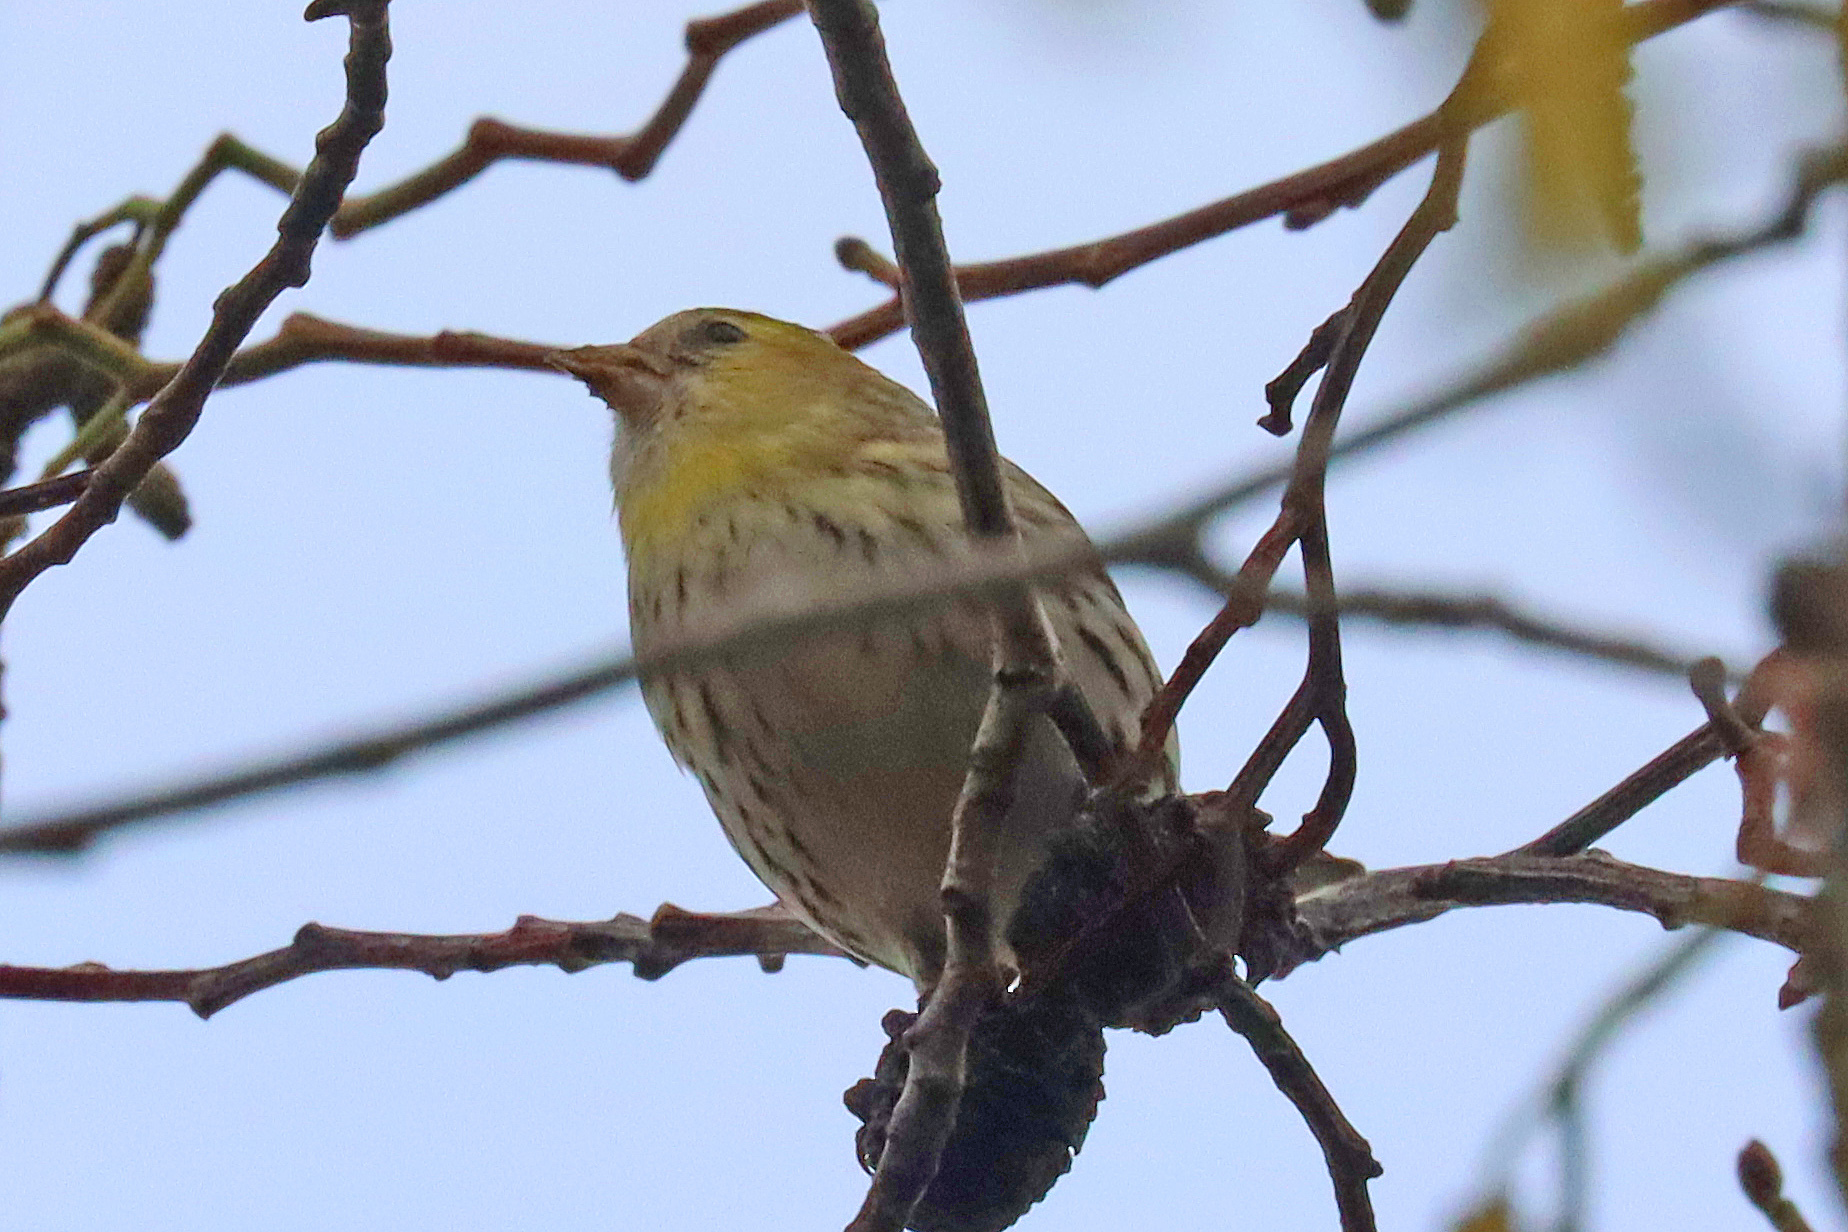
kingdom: Animalia
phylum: Chordata
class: Aves
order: Passeriformes
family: Fringillidae
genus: Spinus
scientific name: Spinus spinus
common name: Eurasian siskin
